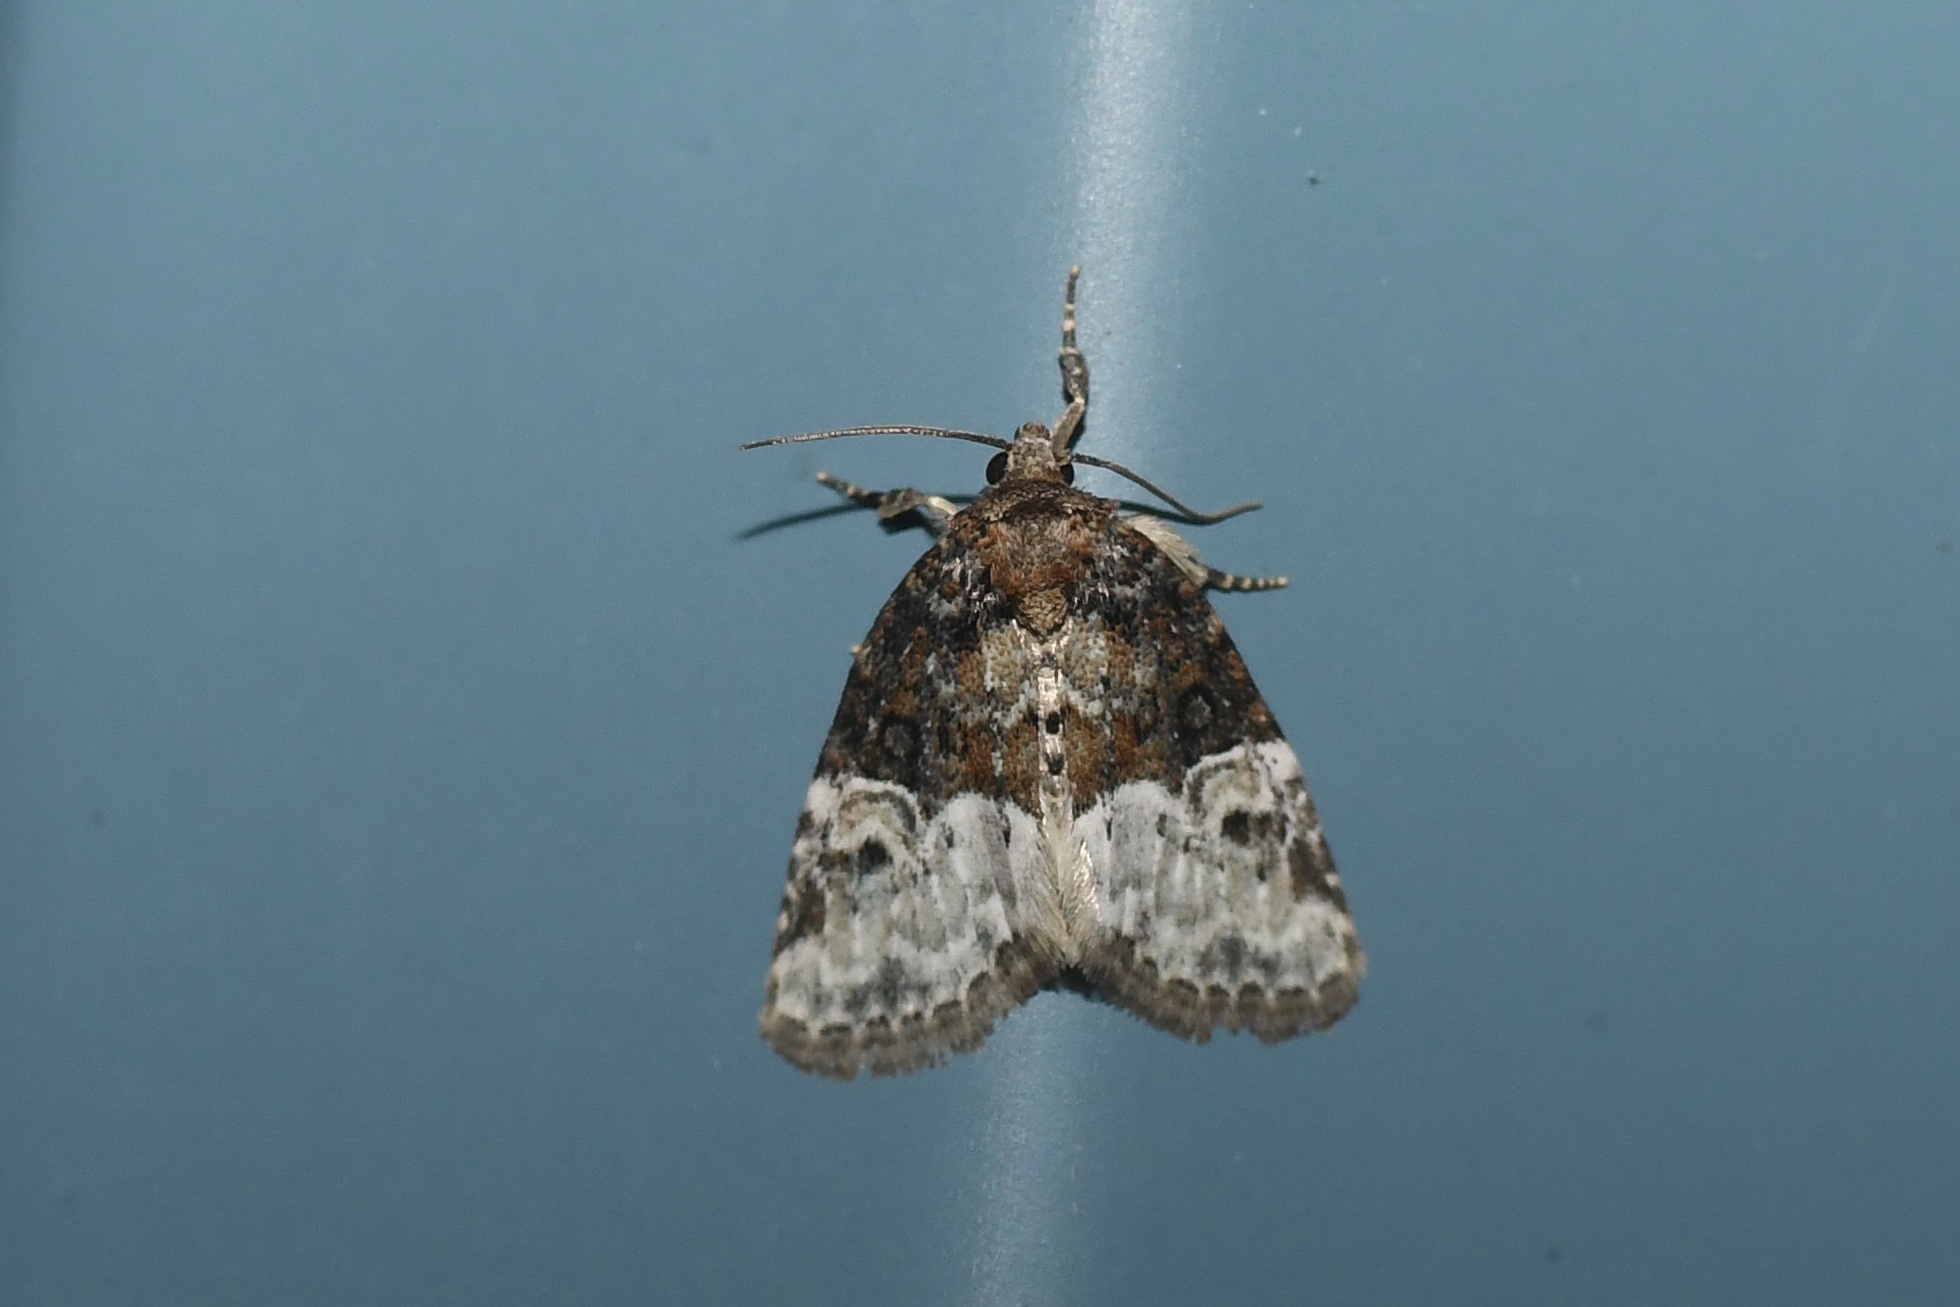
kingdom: Animalia
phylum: Arthropoda
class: Insecta
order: Lepidoptera
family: Noctuidae
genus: Neoligia
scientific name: Neoligia crytora
